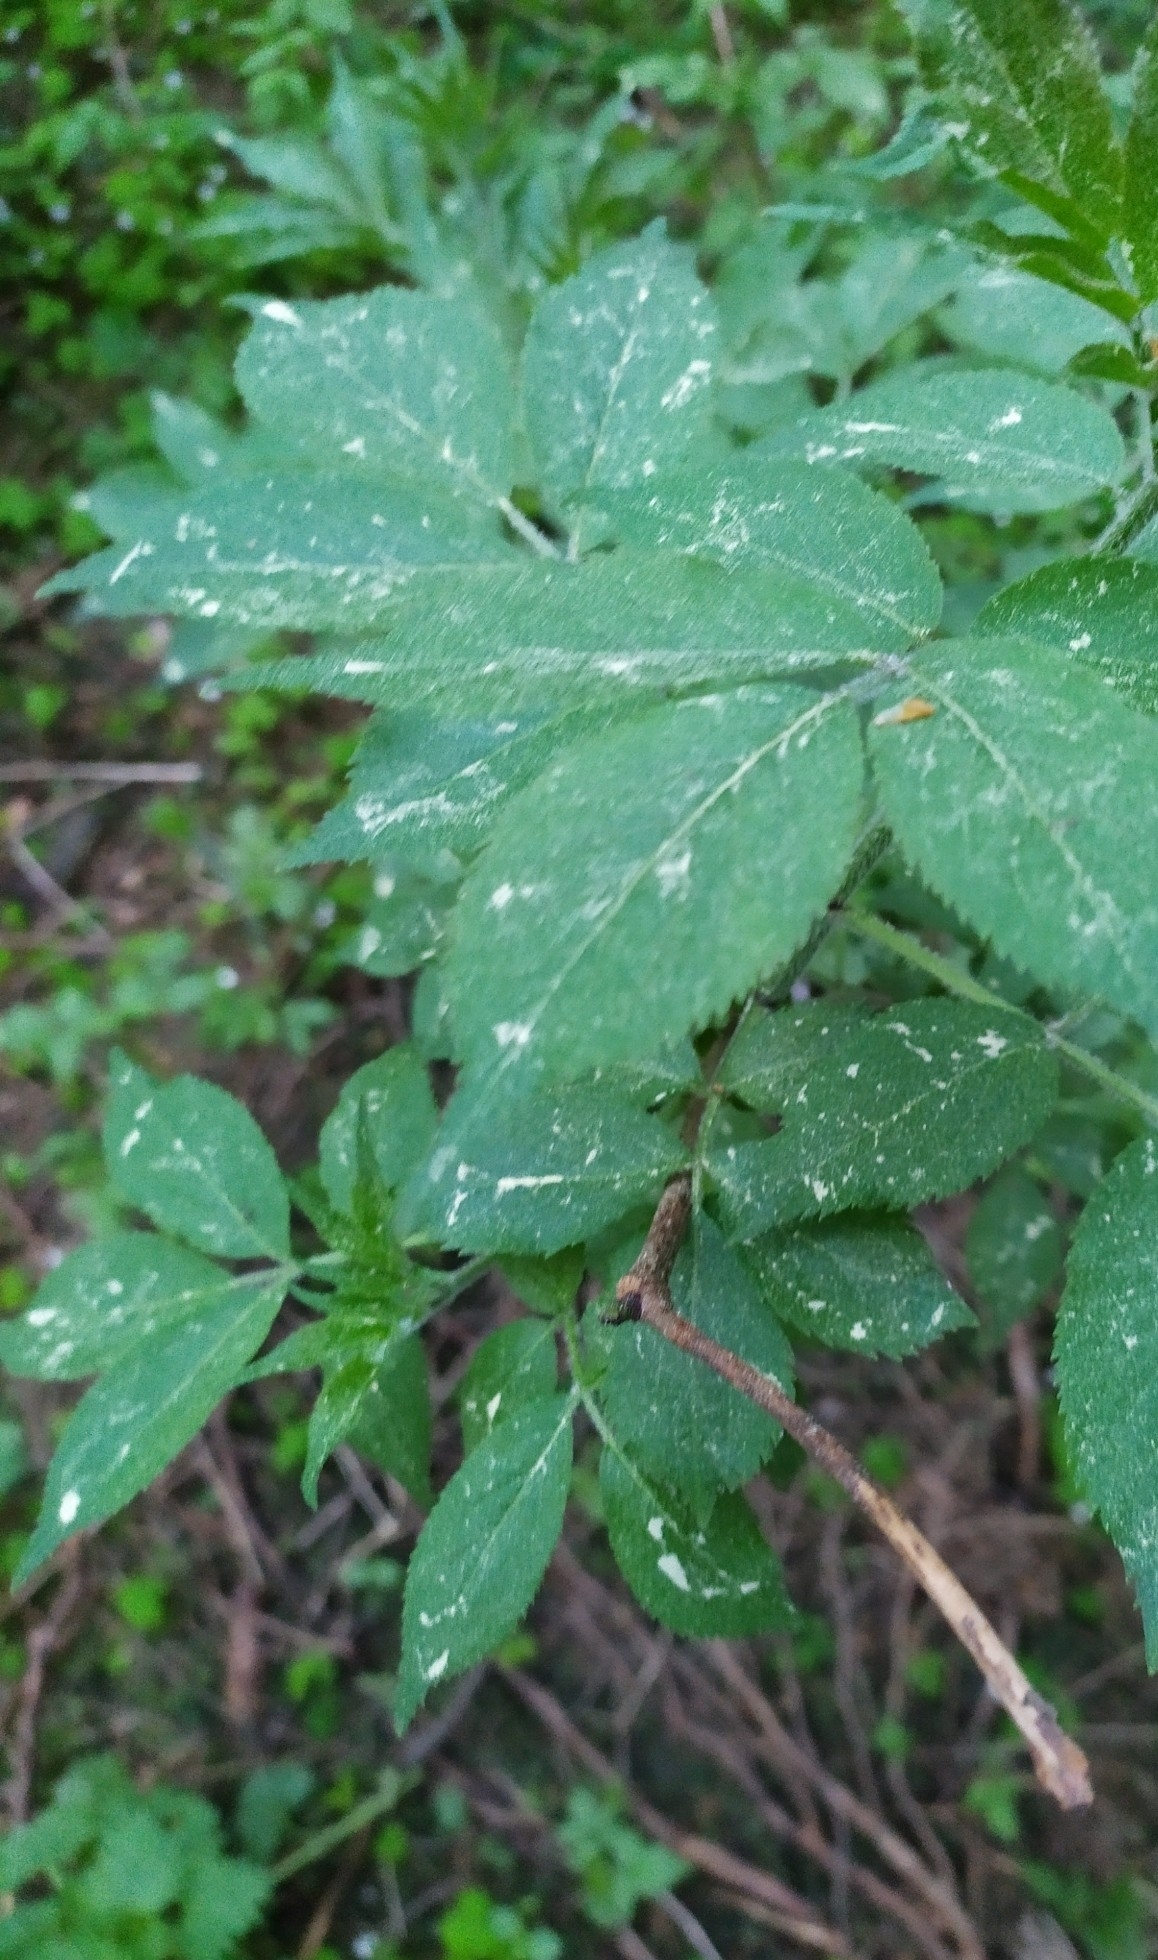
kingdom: Plantae
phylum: Tracheophyta
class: Magnoliopsida
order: Dipsacales
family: Viburnaceae
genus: Sambucus
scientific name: Sambucus racemosa
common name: Red-berried elder
